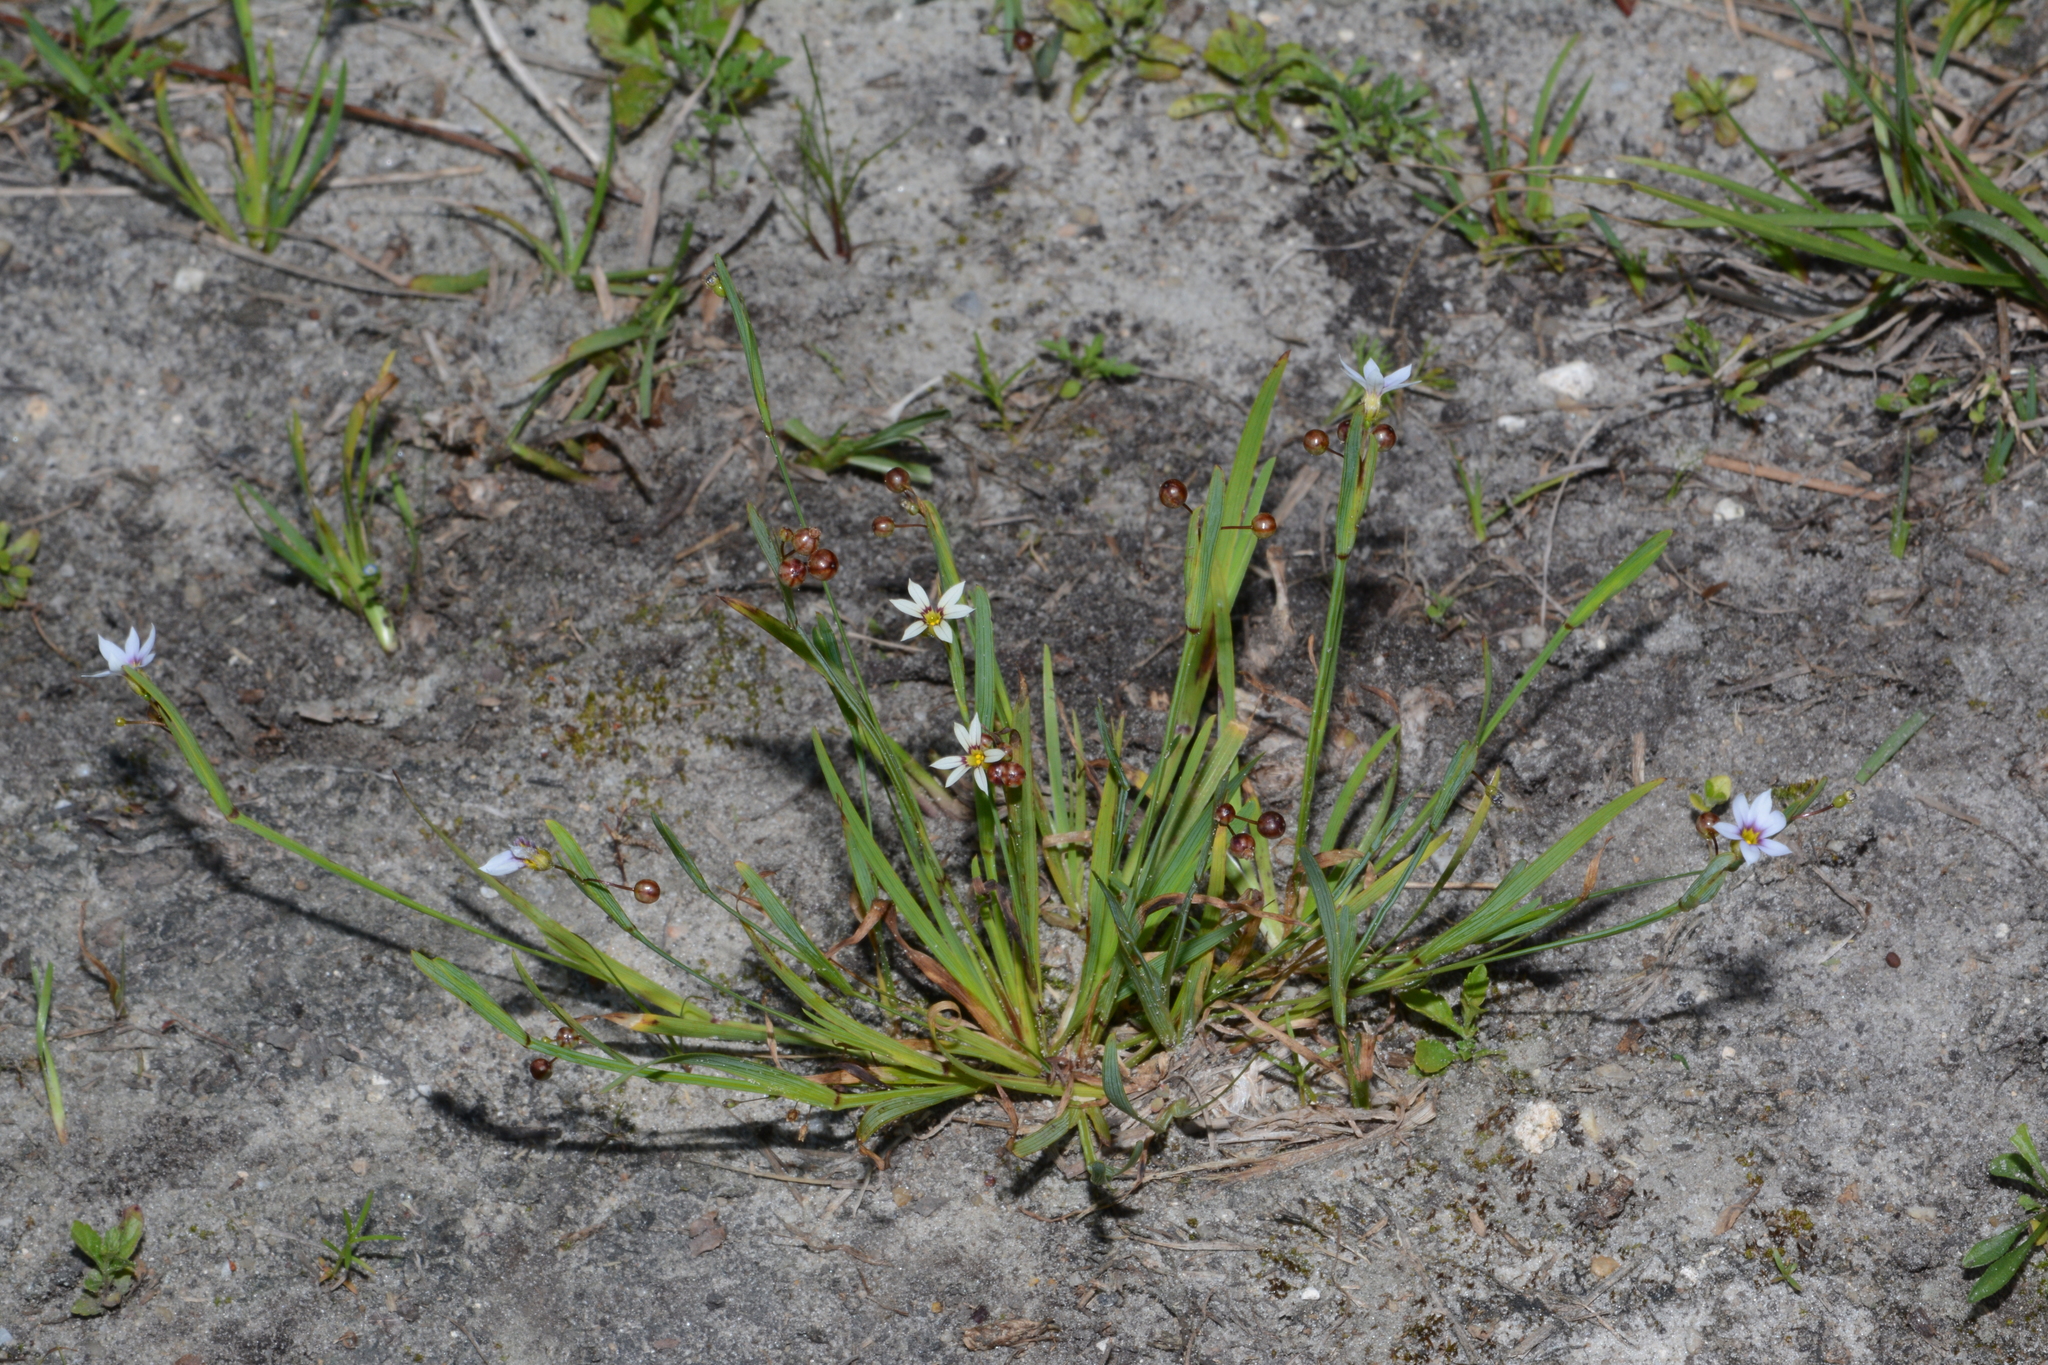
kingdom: Plantae
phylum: Tracheophyta
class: Liliopsida
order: Asparagales
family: Iridaceae
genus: Sisyrinchium
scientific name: Sisyrinchium micranthum
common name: Bermuda pigroot
